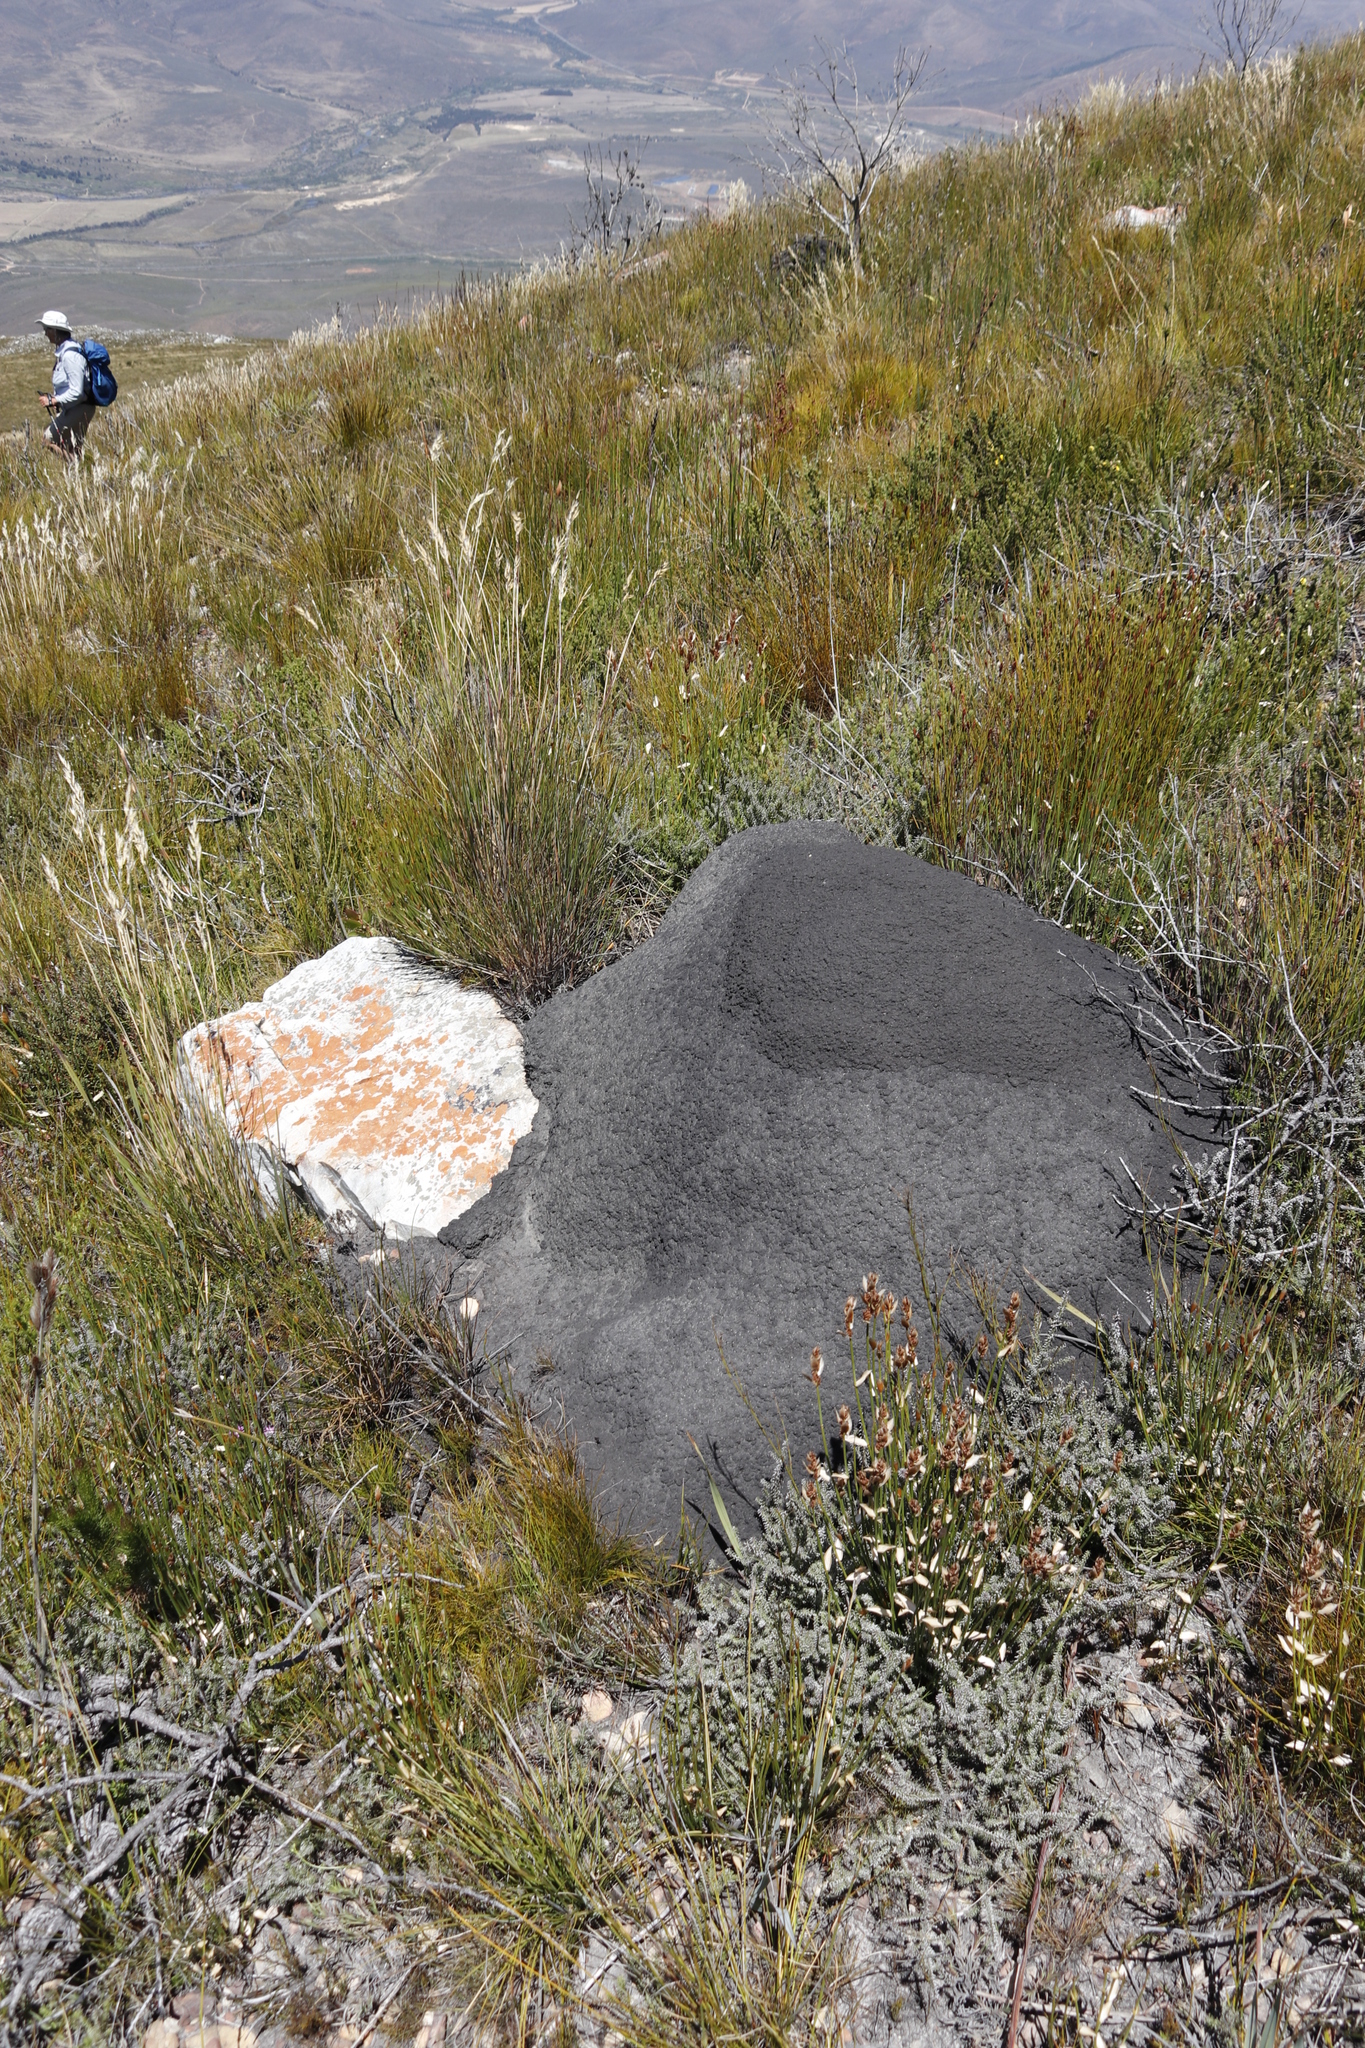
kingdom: Animalia
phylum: Arthropoda
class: Insecta
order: Blattodea
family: Termitidae
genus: Amitermes
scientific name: Amitermes hastatus
